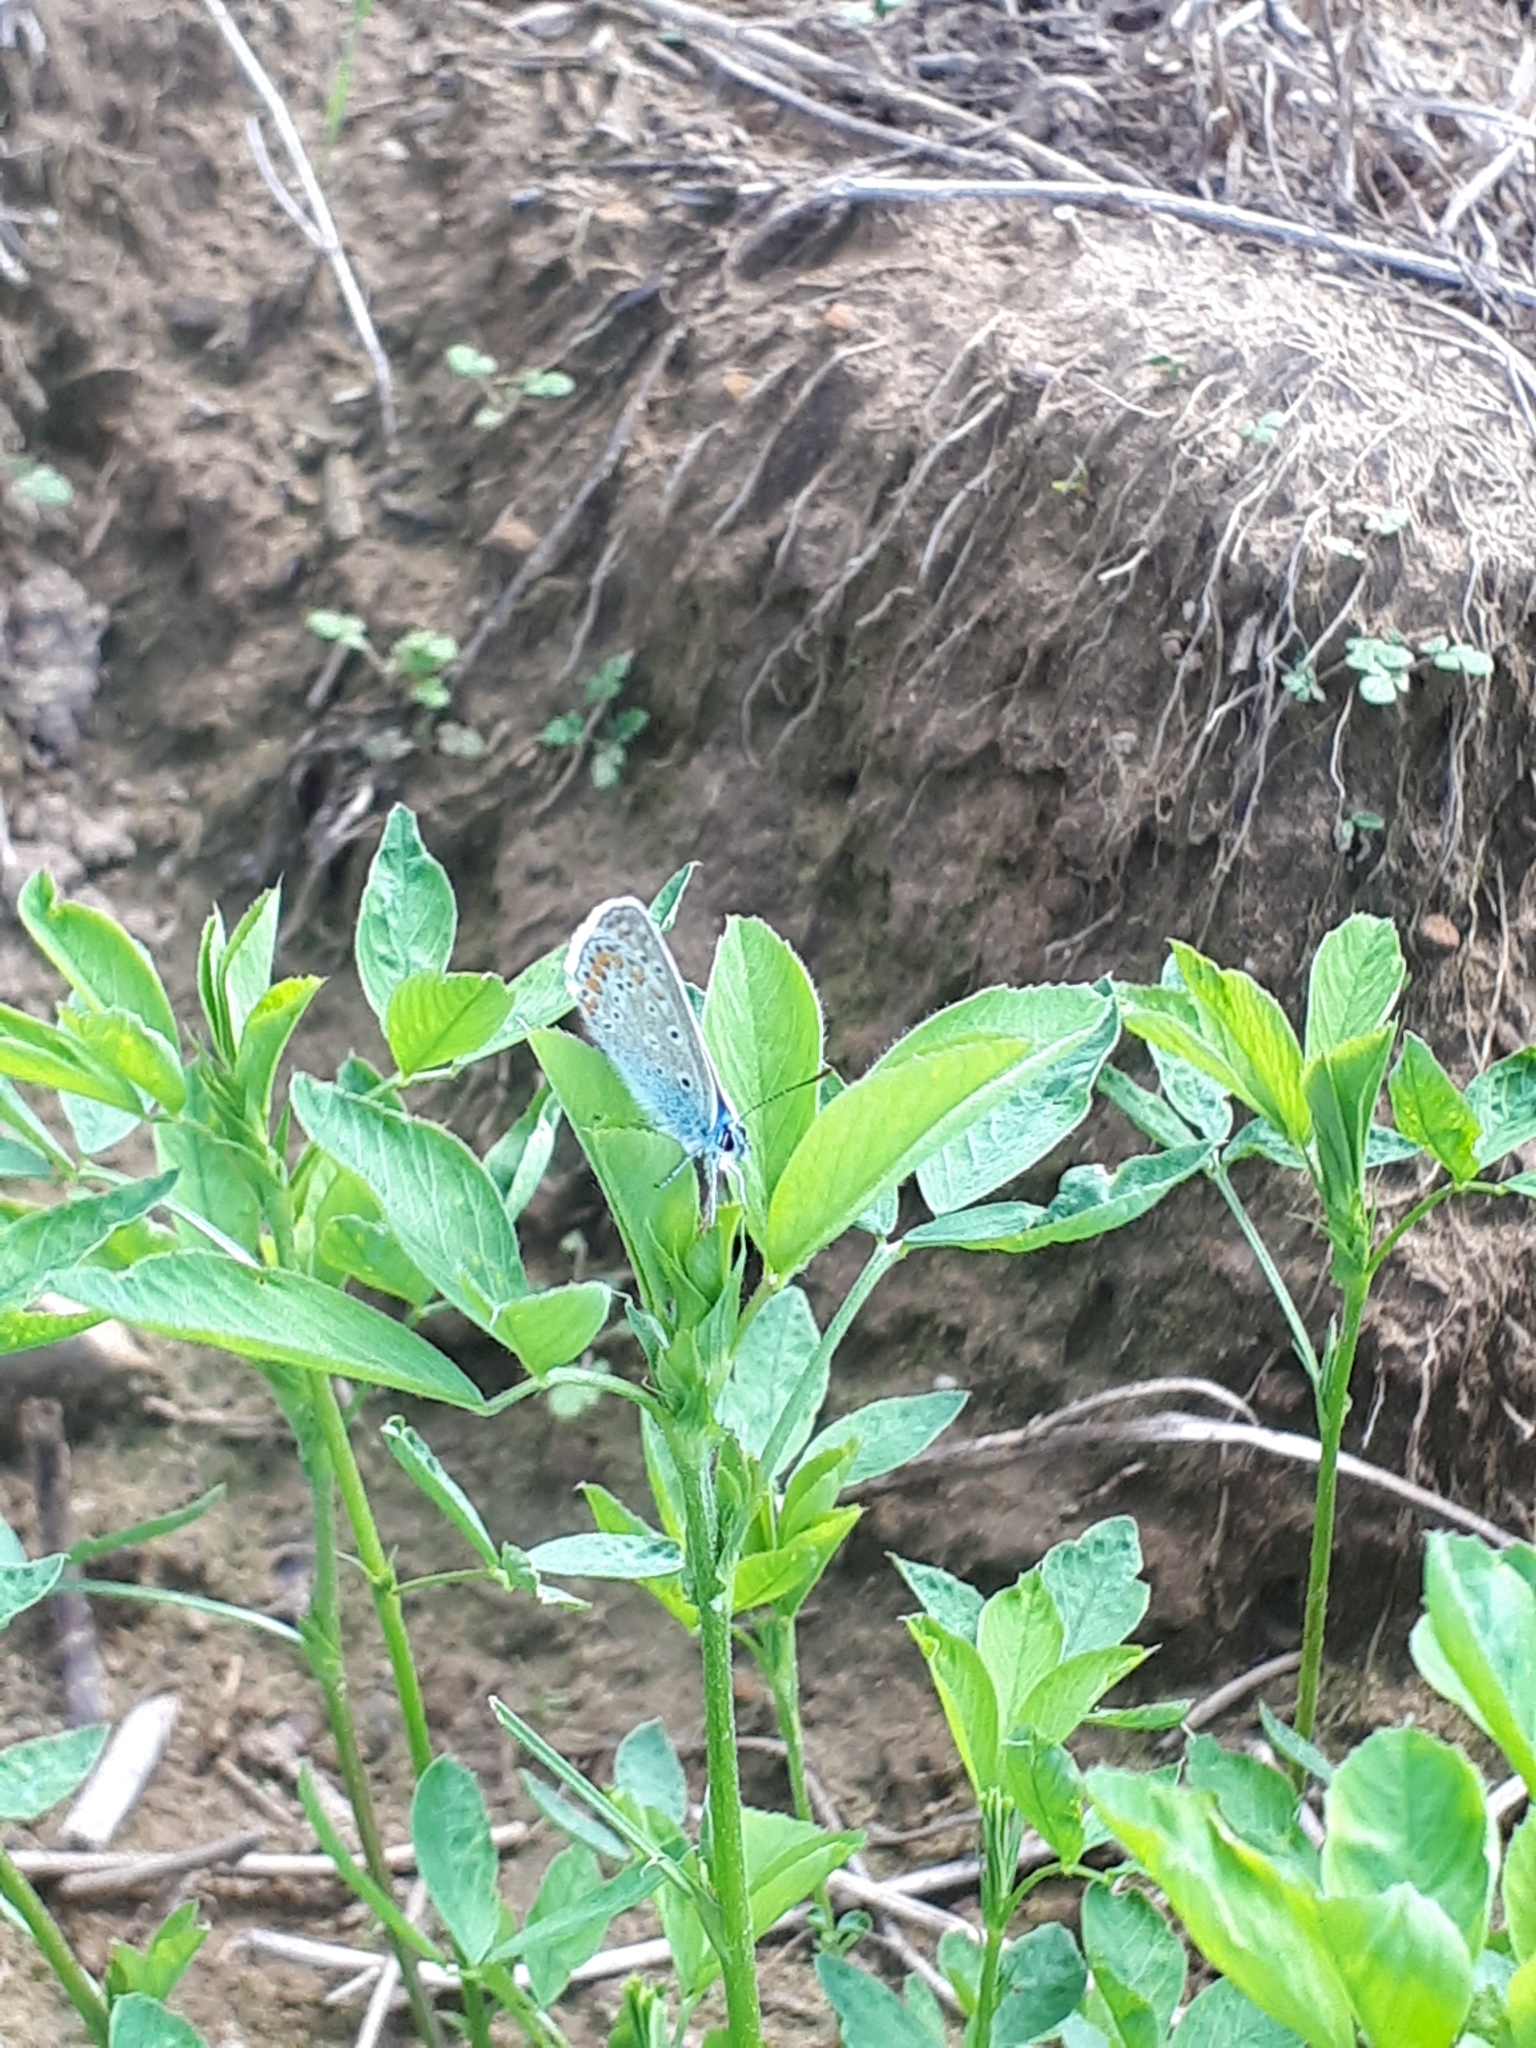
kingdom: Animalia
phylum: Arthropoda
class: Insecta
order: Lepidoptera
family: Lycaenidae
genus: Polyommatus
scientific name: Polyommatus icarus
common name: Common blue
